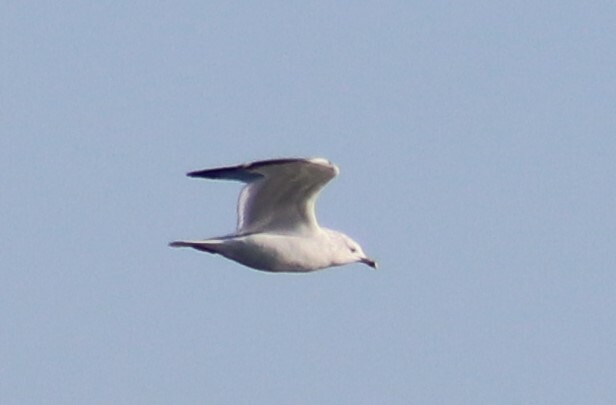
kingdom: Animalia
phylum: Chordata
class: Aves
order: Charadriiformes
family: Laridae
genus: Larus
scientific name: Larus delawarensis
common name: Ring-billed gull
